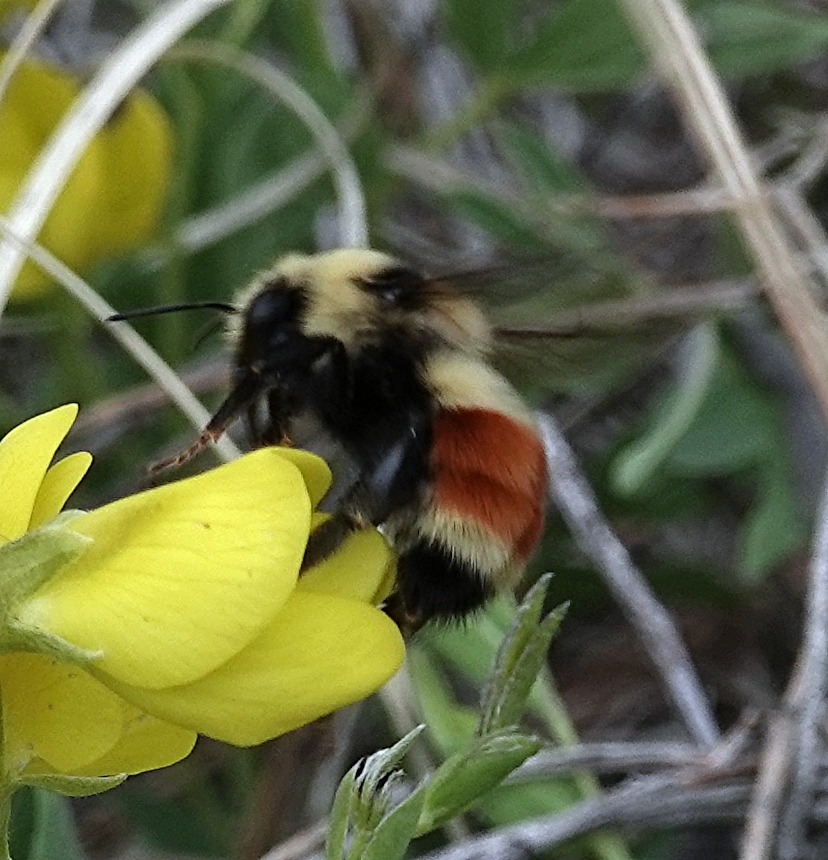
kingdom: Animalia
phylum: Arthropoda
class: Insecta
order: Hymenoptera
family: Apidae
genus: Bombus
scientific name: Bombus huntii
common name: Hunt bumble bee
